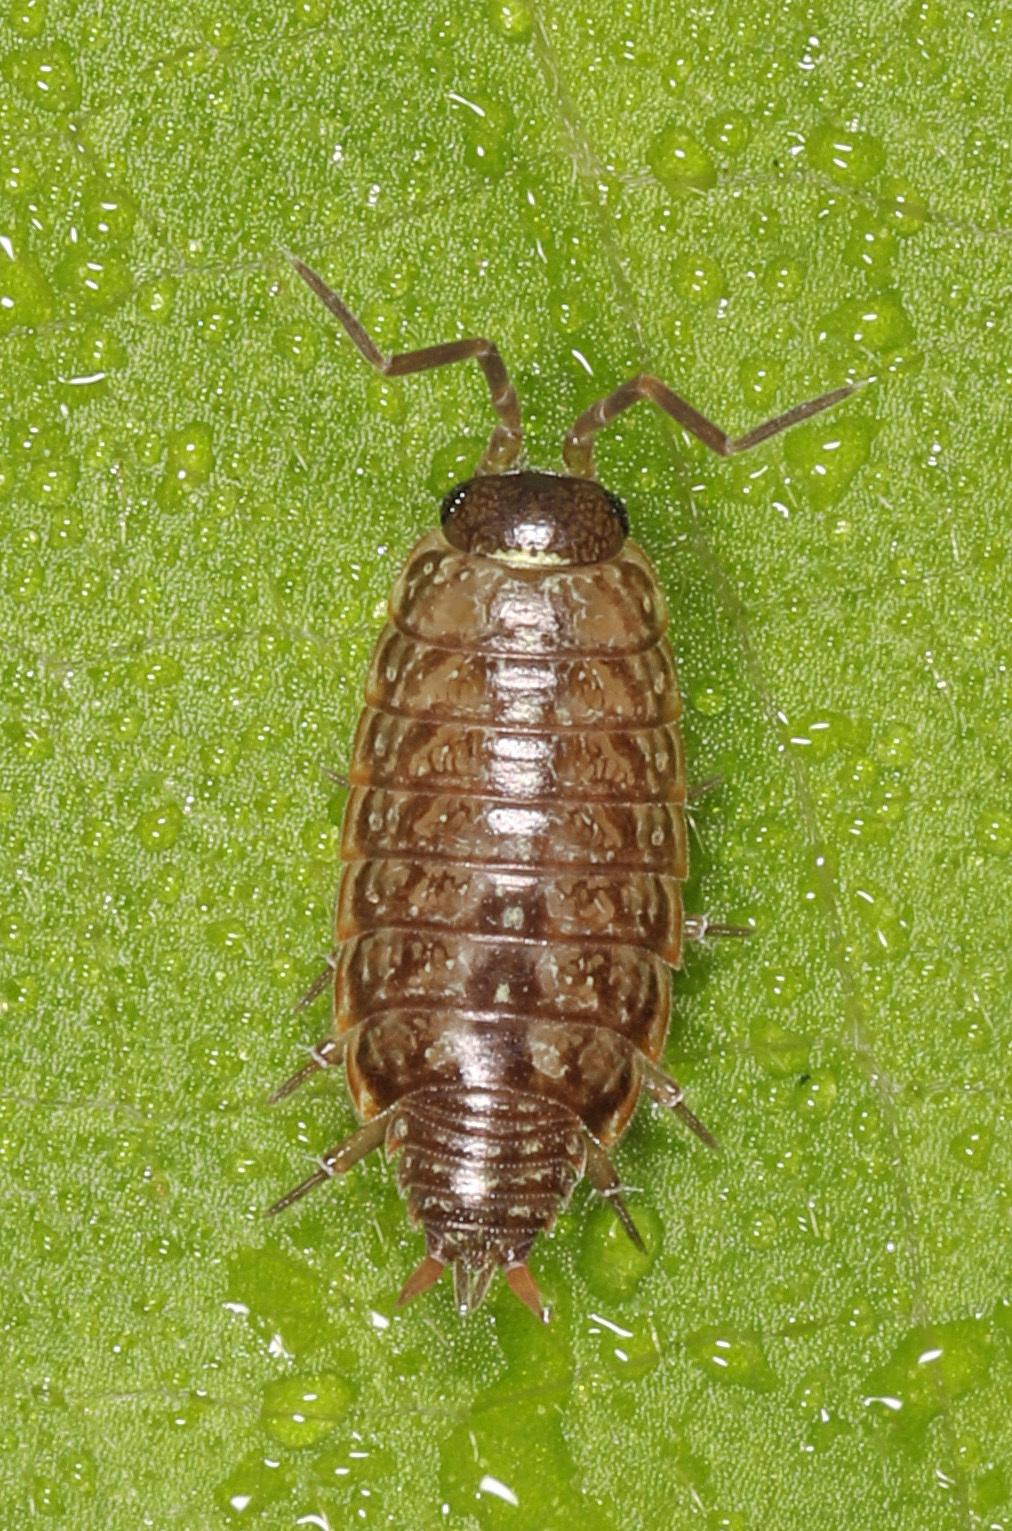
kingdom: Animalia
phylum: Arthropoda
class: Malacostraca
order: Isopoda
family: Philosciidae
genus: Philoscia
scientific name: Philoscia muscorum
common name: Common striped woodlouse
